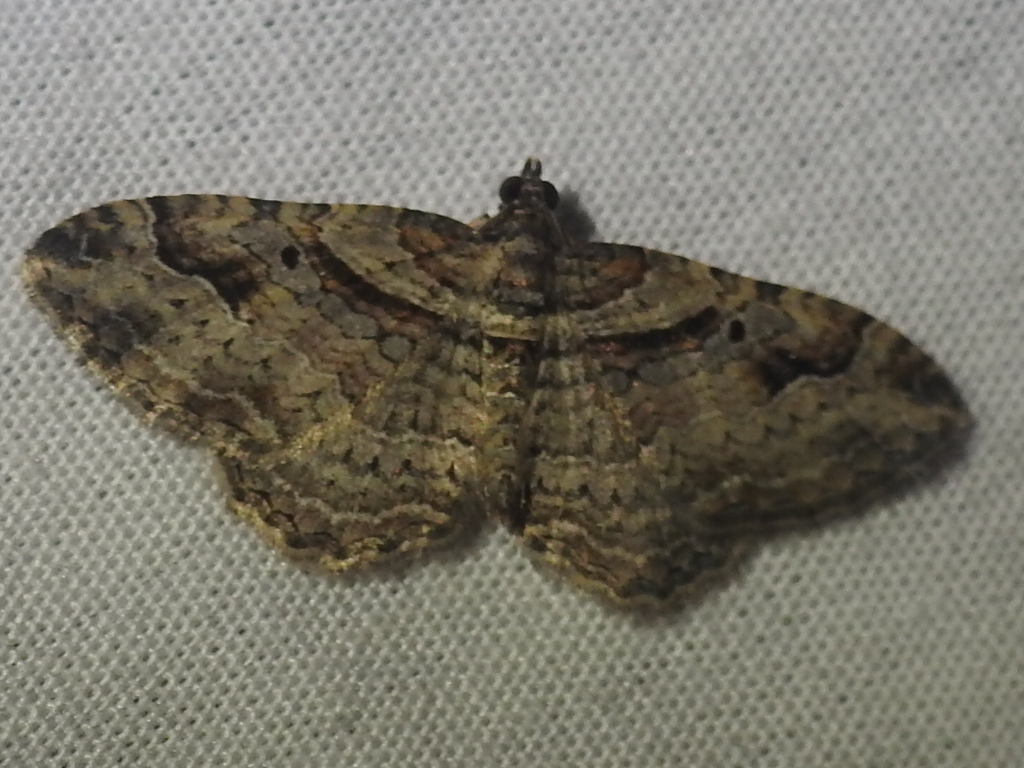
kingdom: Animalia
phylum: Arthropoda
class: Insecta
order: Lepidoptera
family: Geometridae
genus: Costaconvexa
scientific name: Costaconvexa centrostrigaria
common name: Bent-line carpet
